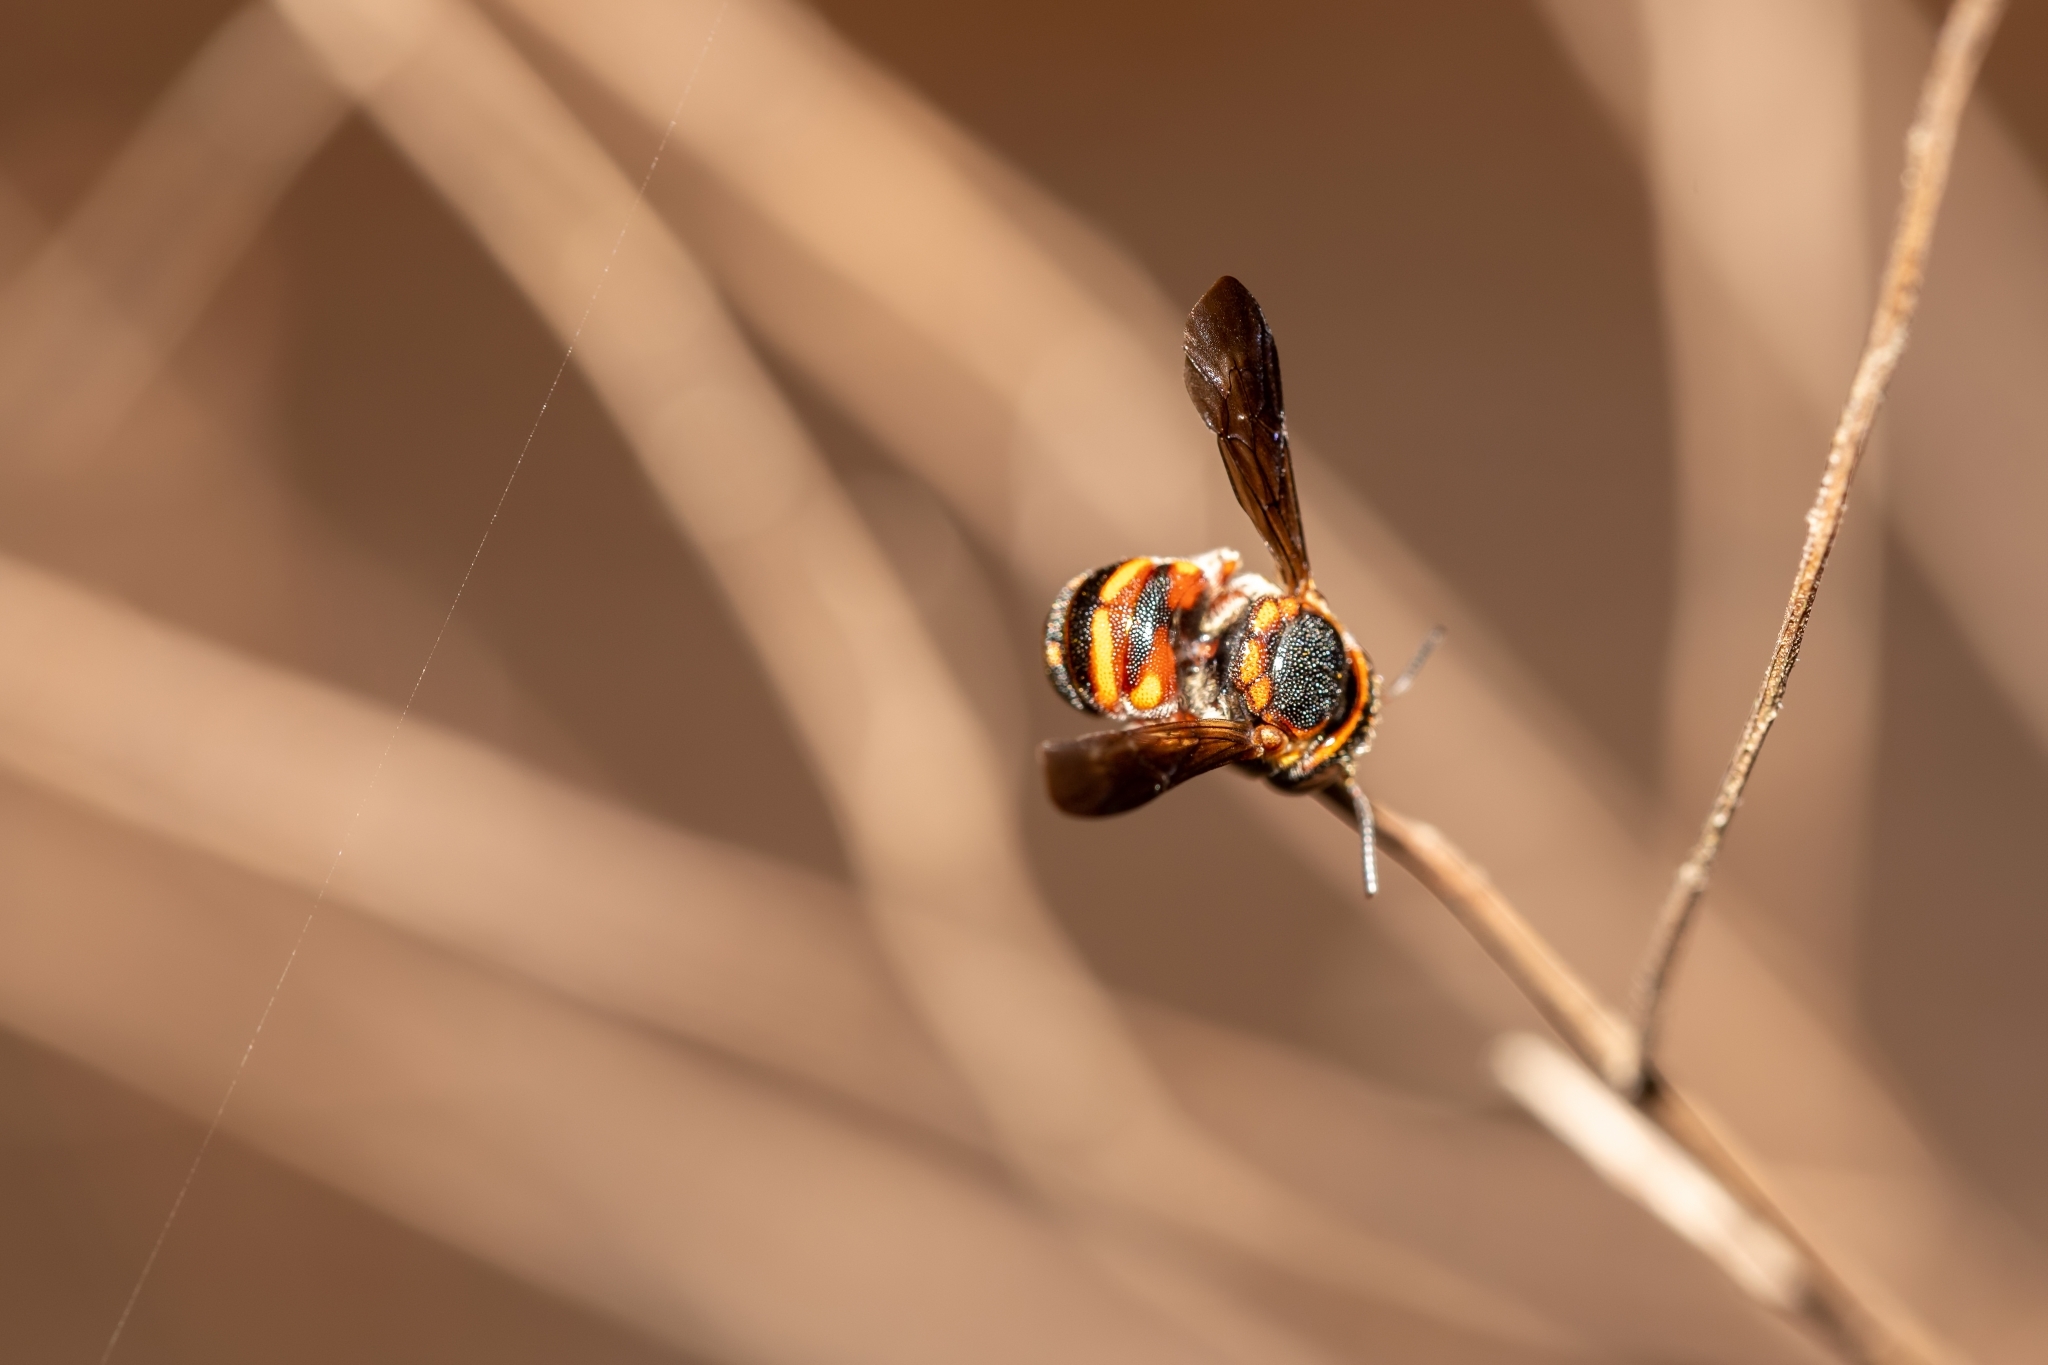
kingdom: Animalia
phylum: Arthropoda
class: Insecta
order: Hymenoptera
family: Megachilidae
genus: Anthidiellum
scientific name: Anthidiellum perplexum
